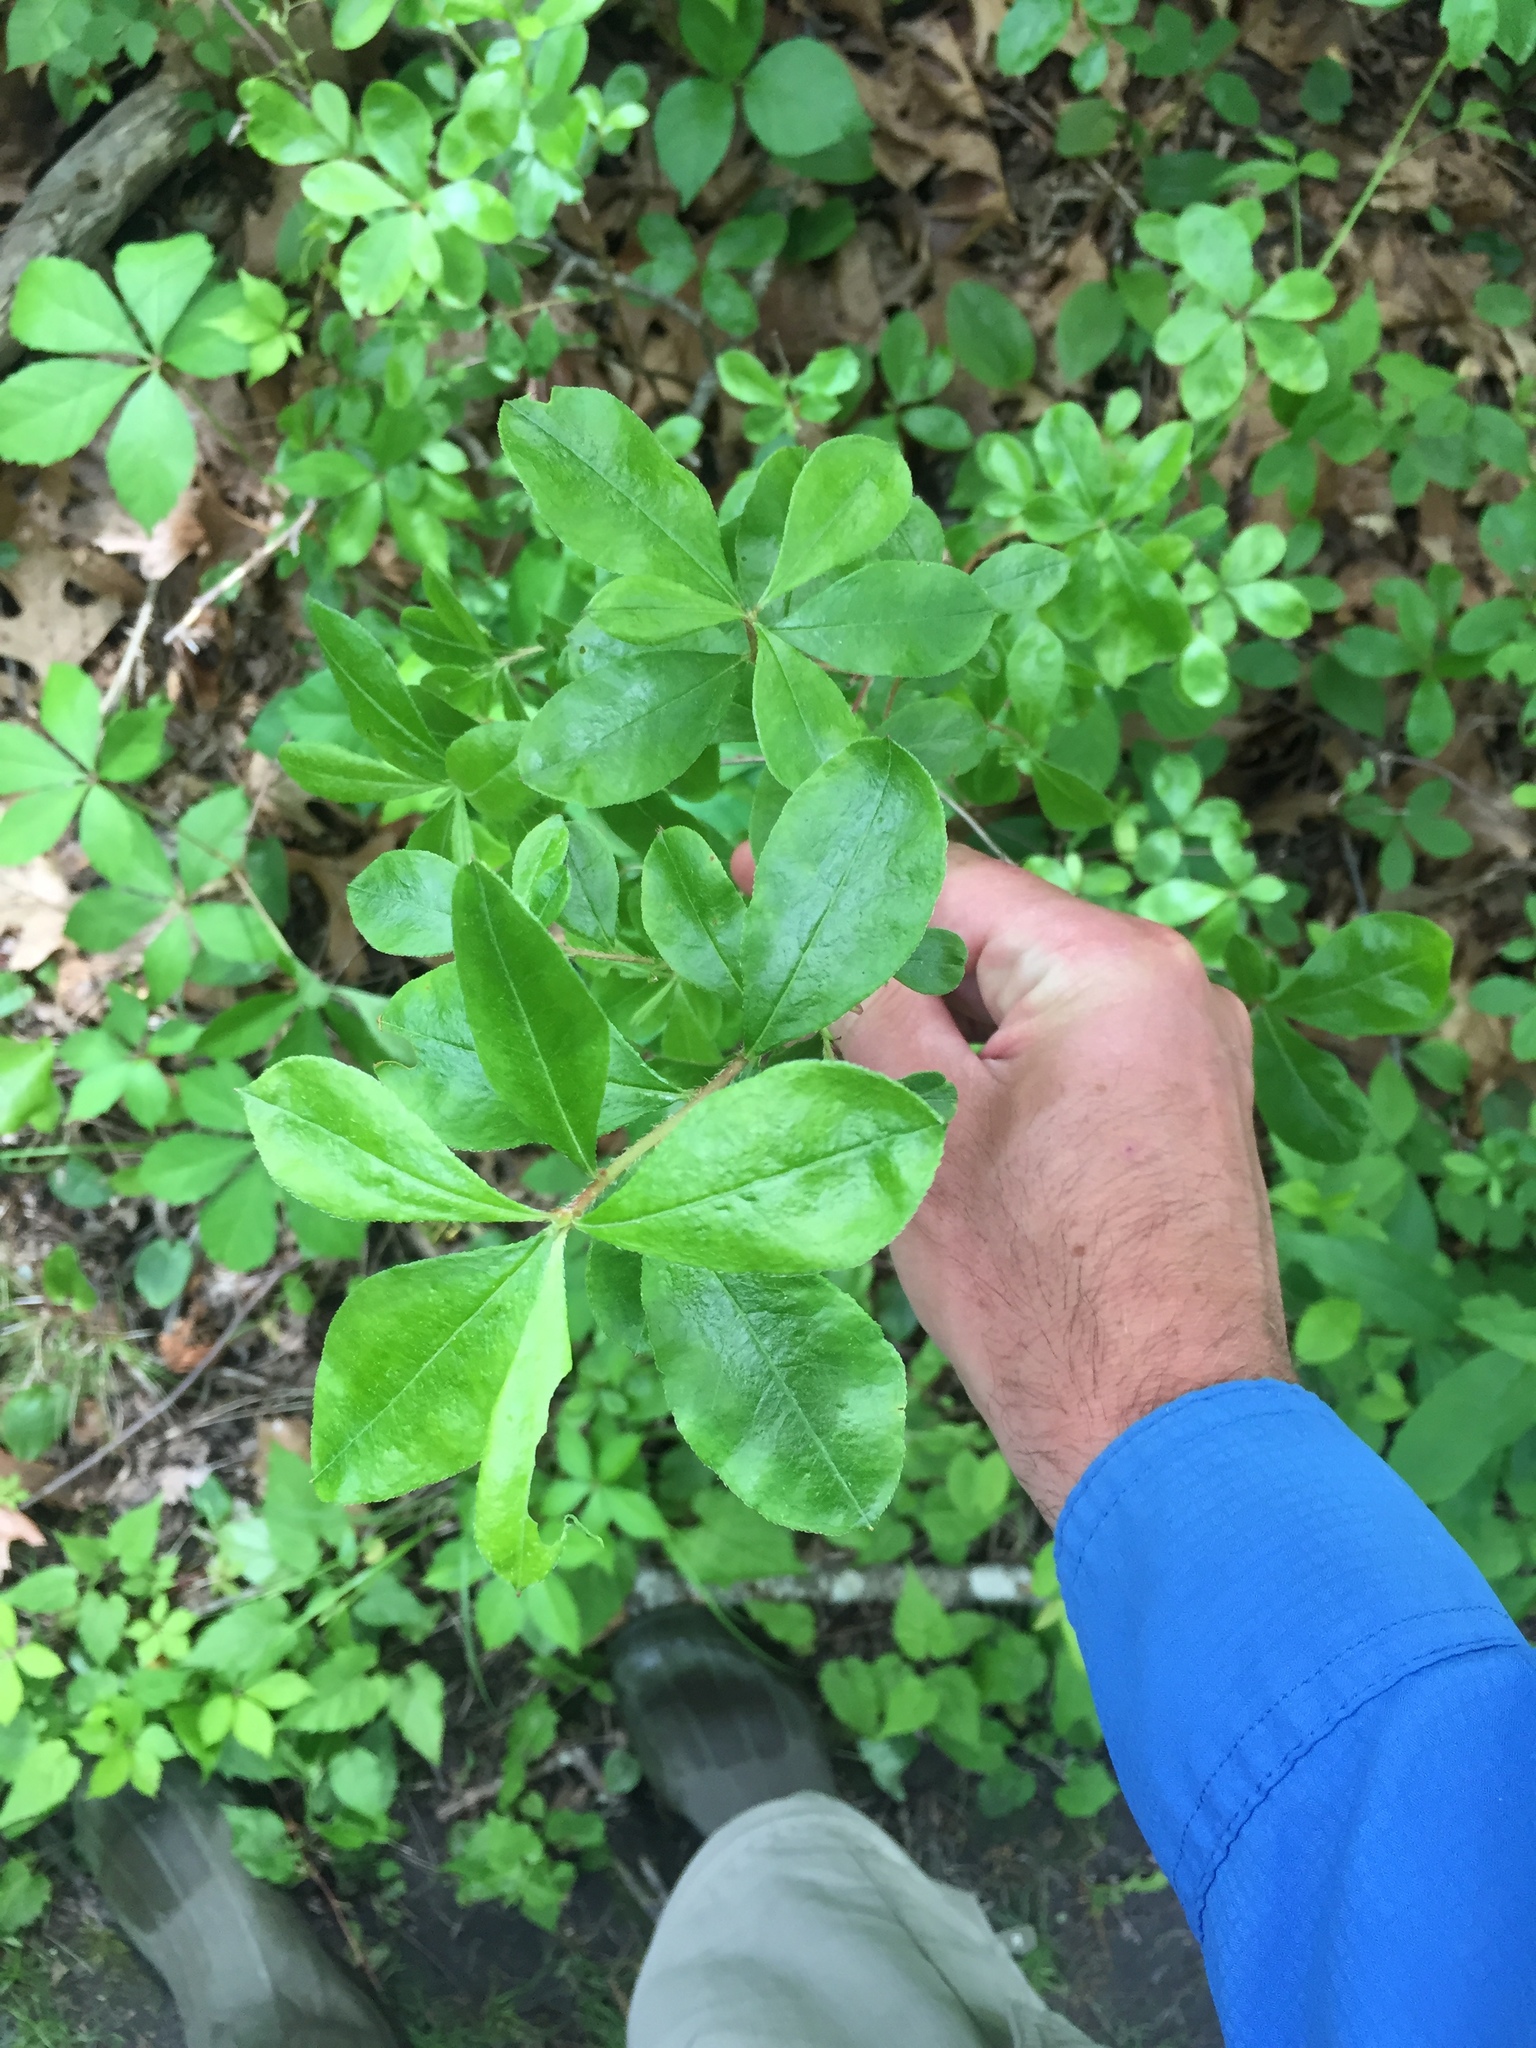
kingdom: Plantae
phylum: Tracheophyta
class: Magnoliopsida
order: Ericales
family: Ericaceae
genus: Rhododendron
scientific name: Rhododendron viscosum
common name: Clammy azalea
